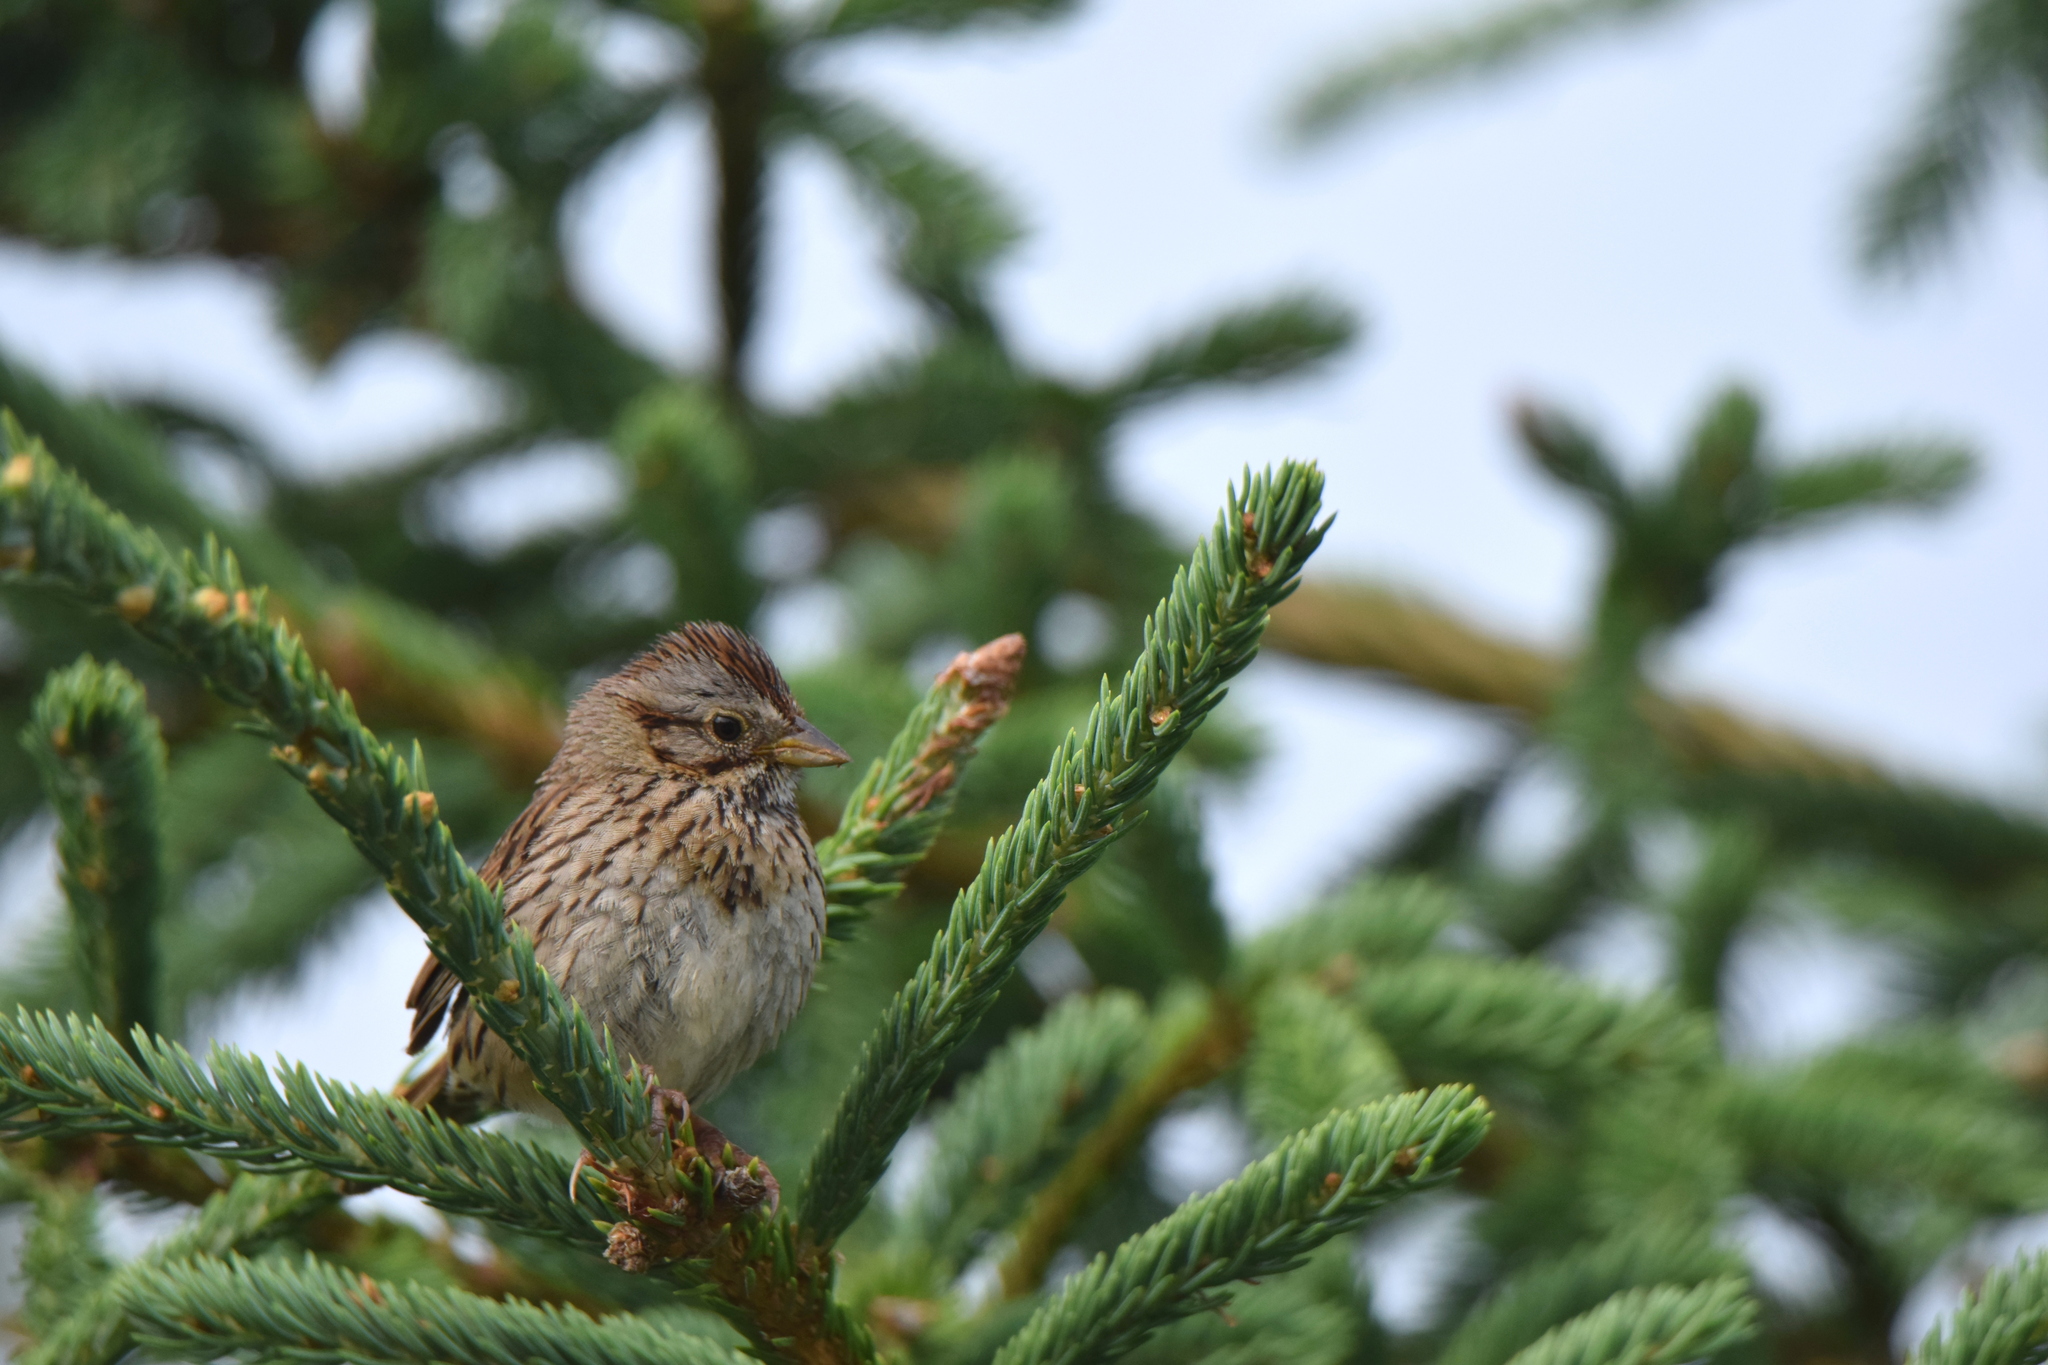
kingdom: Animalia
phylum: Chordata
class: Aves
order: Passeriformes
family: Passerellidae
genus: Melospiza
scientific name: Melospiza lincolnii
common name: Lincoln's sparrow
